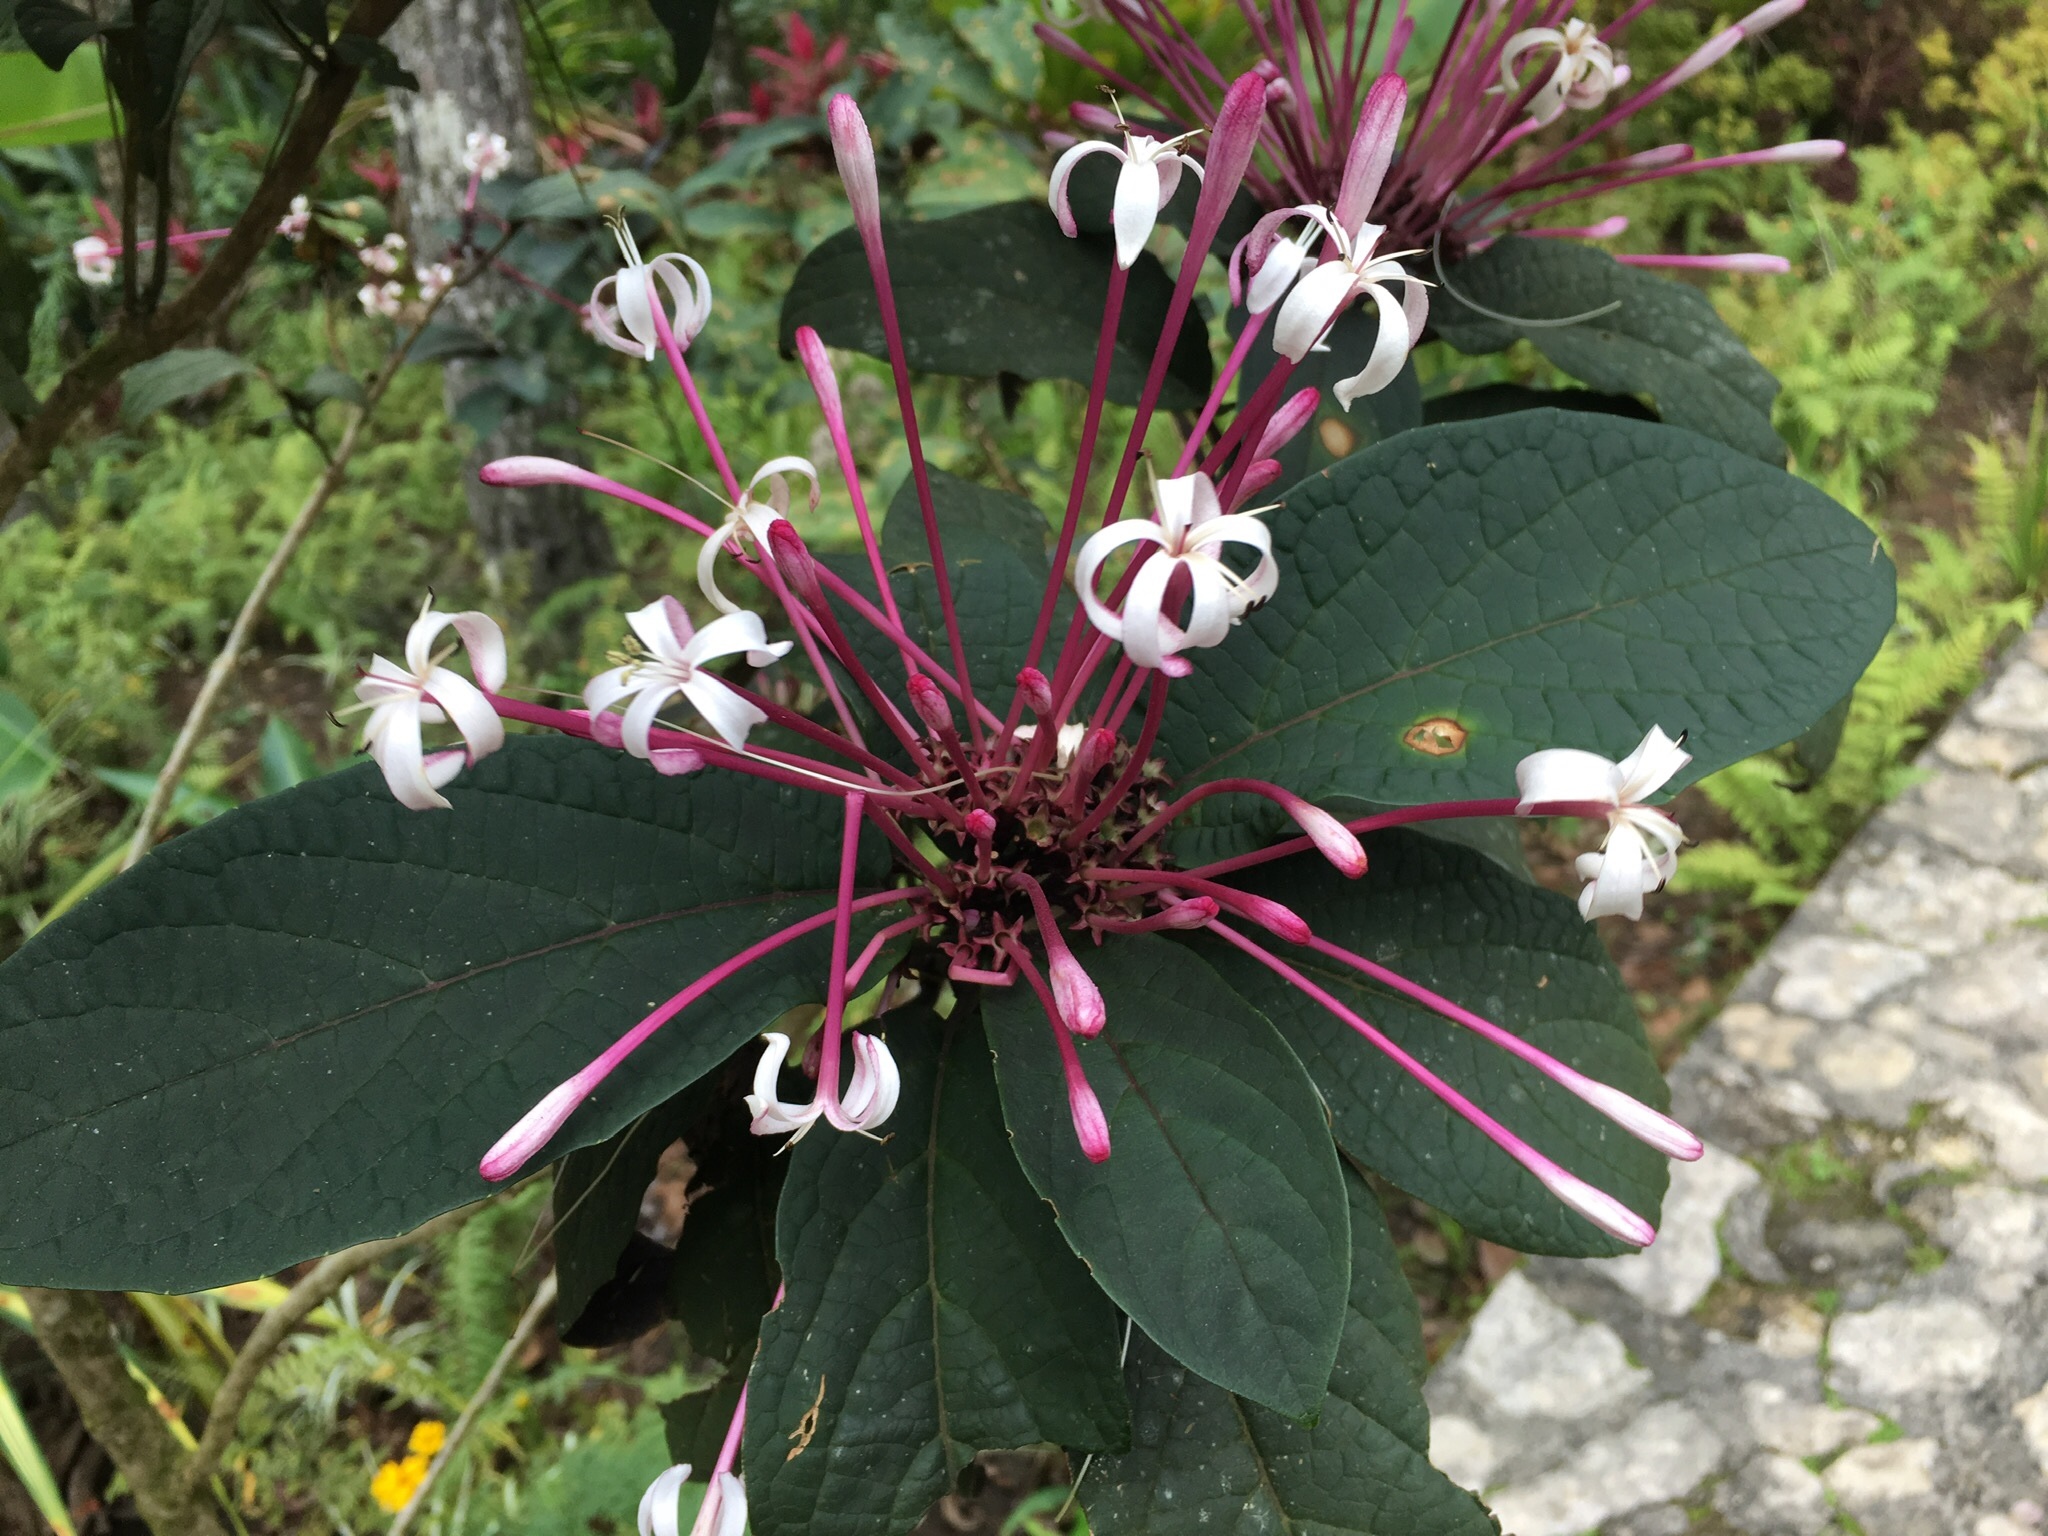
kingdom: Plantae
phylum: Tracheophyta
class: Magnoliopsida
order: Lamiales
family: Lamiaceae
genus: Clerodendrum
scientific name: Clerodendrum quadriloculare
